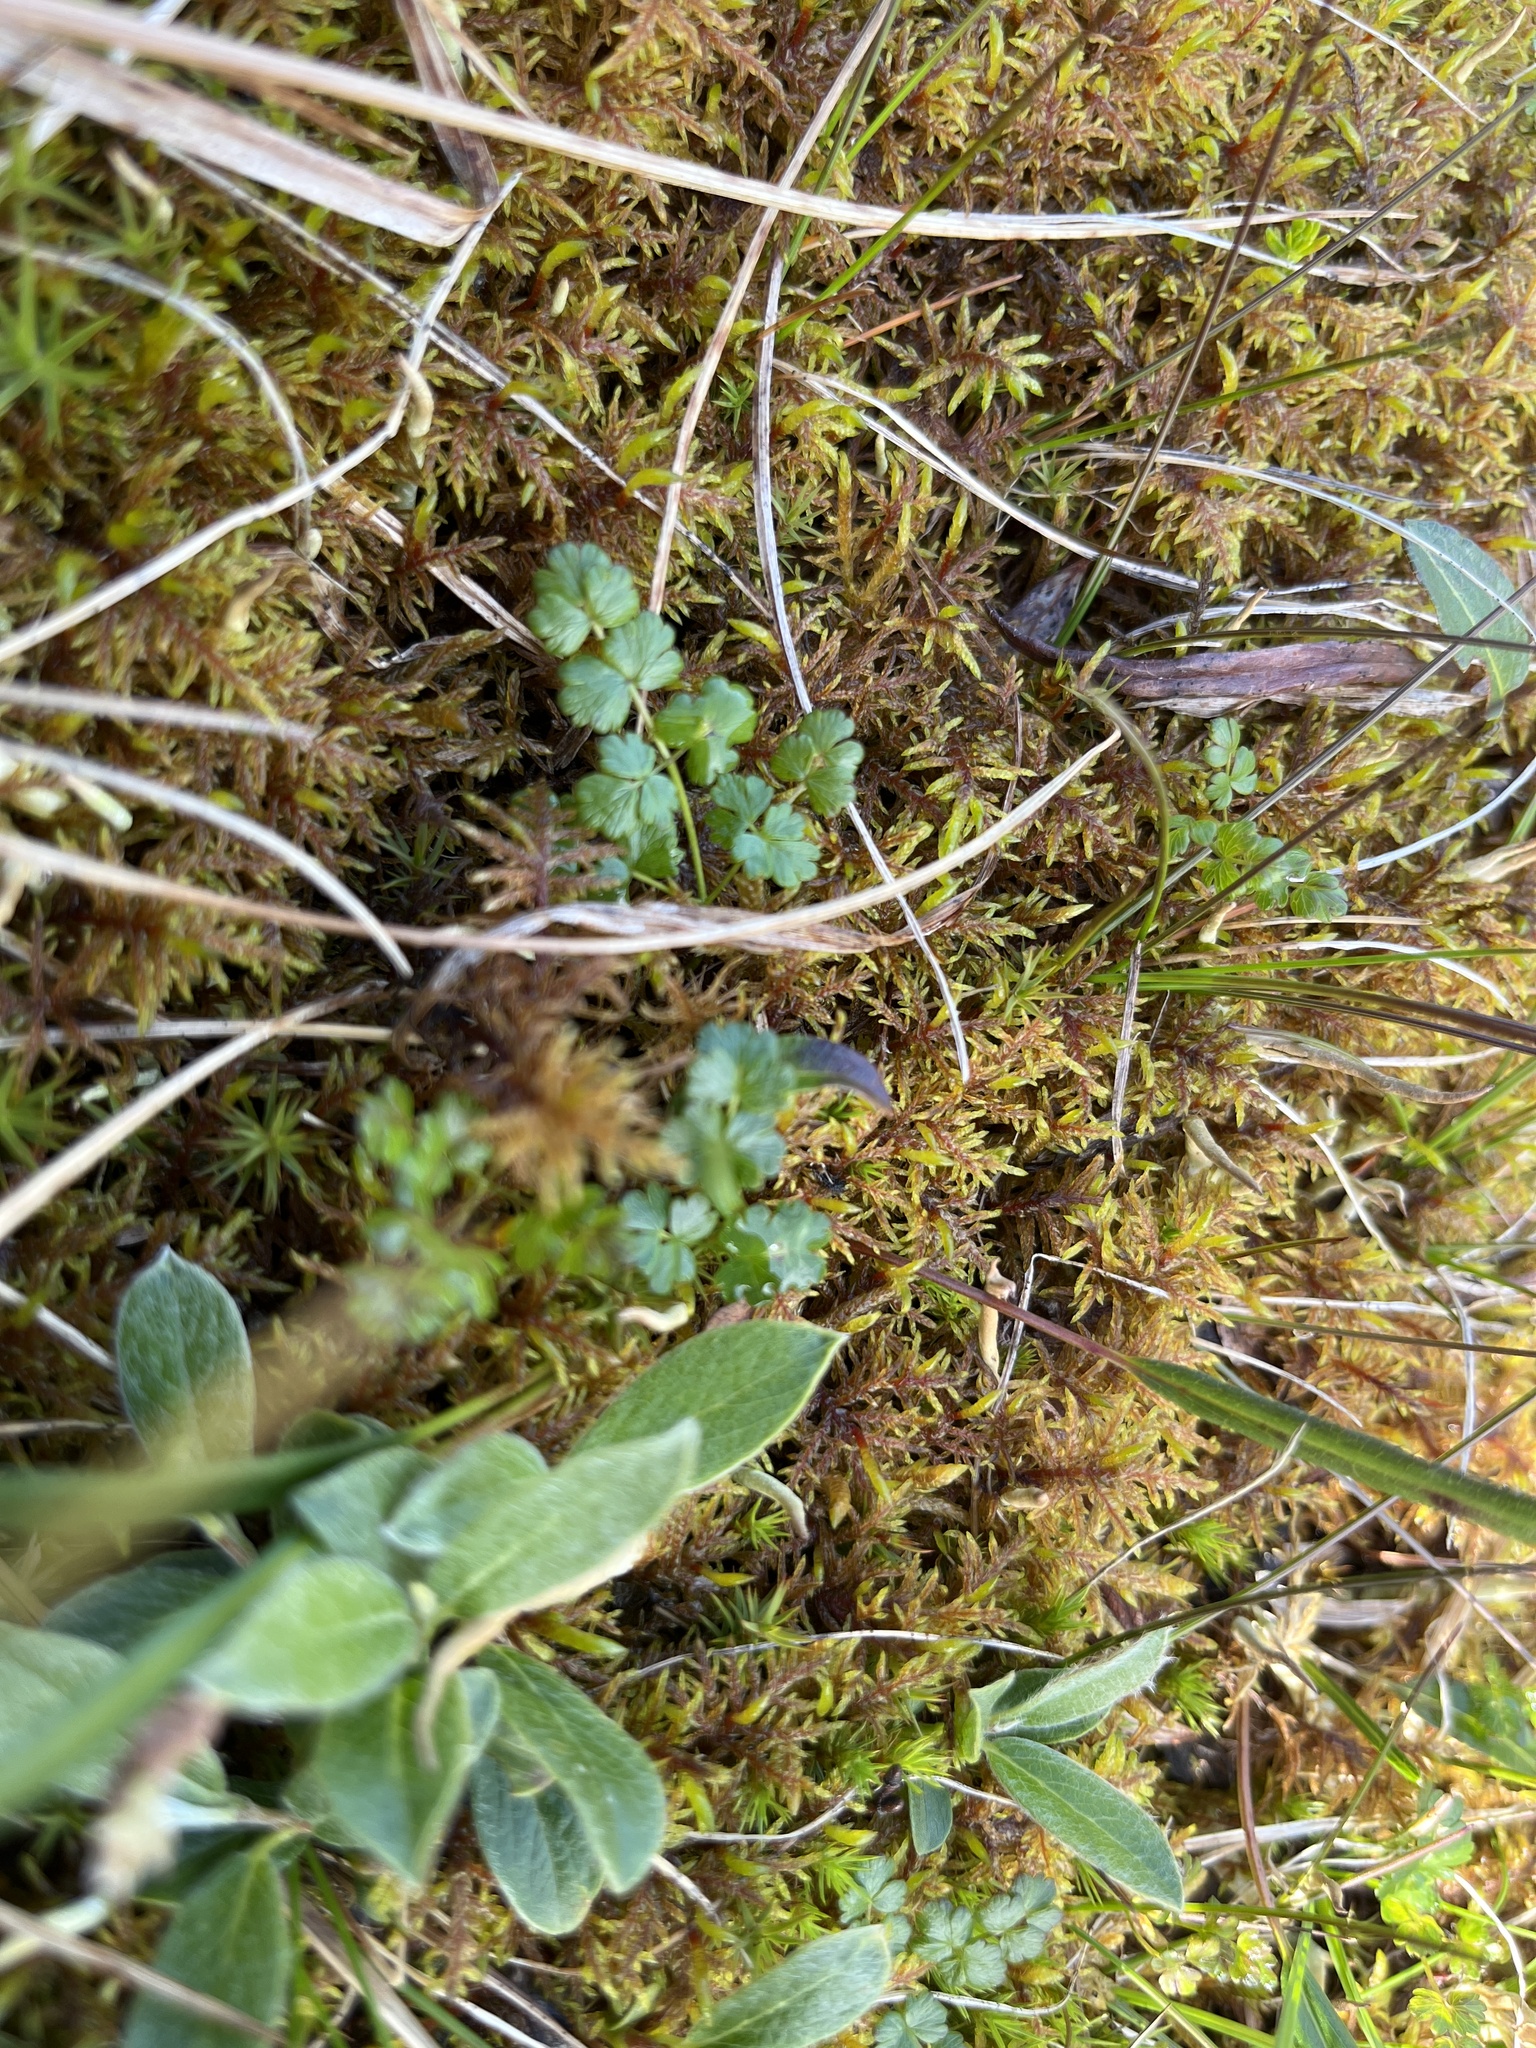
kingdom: Plantae
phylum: Tracheophyta
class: Magnoliopsida
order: Ranunculales
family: Ranunculaceae
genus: Thalictrum
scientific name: Thalictrum alpinum
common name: Alpine meadow-rue
